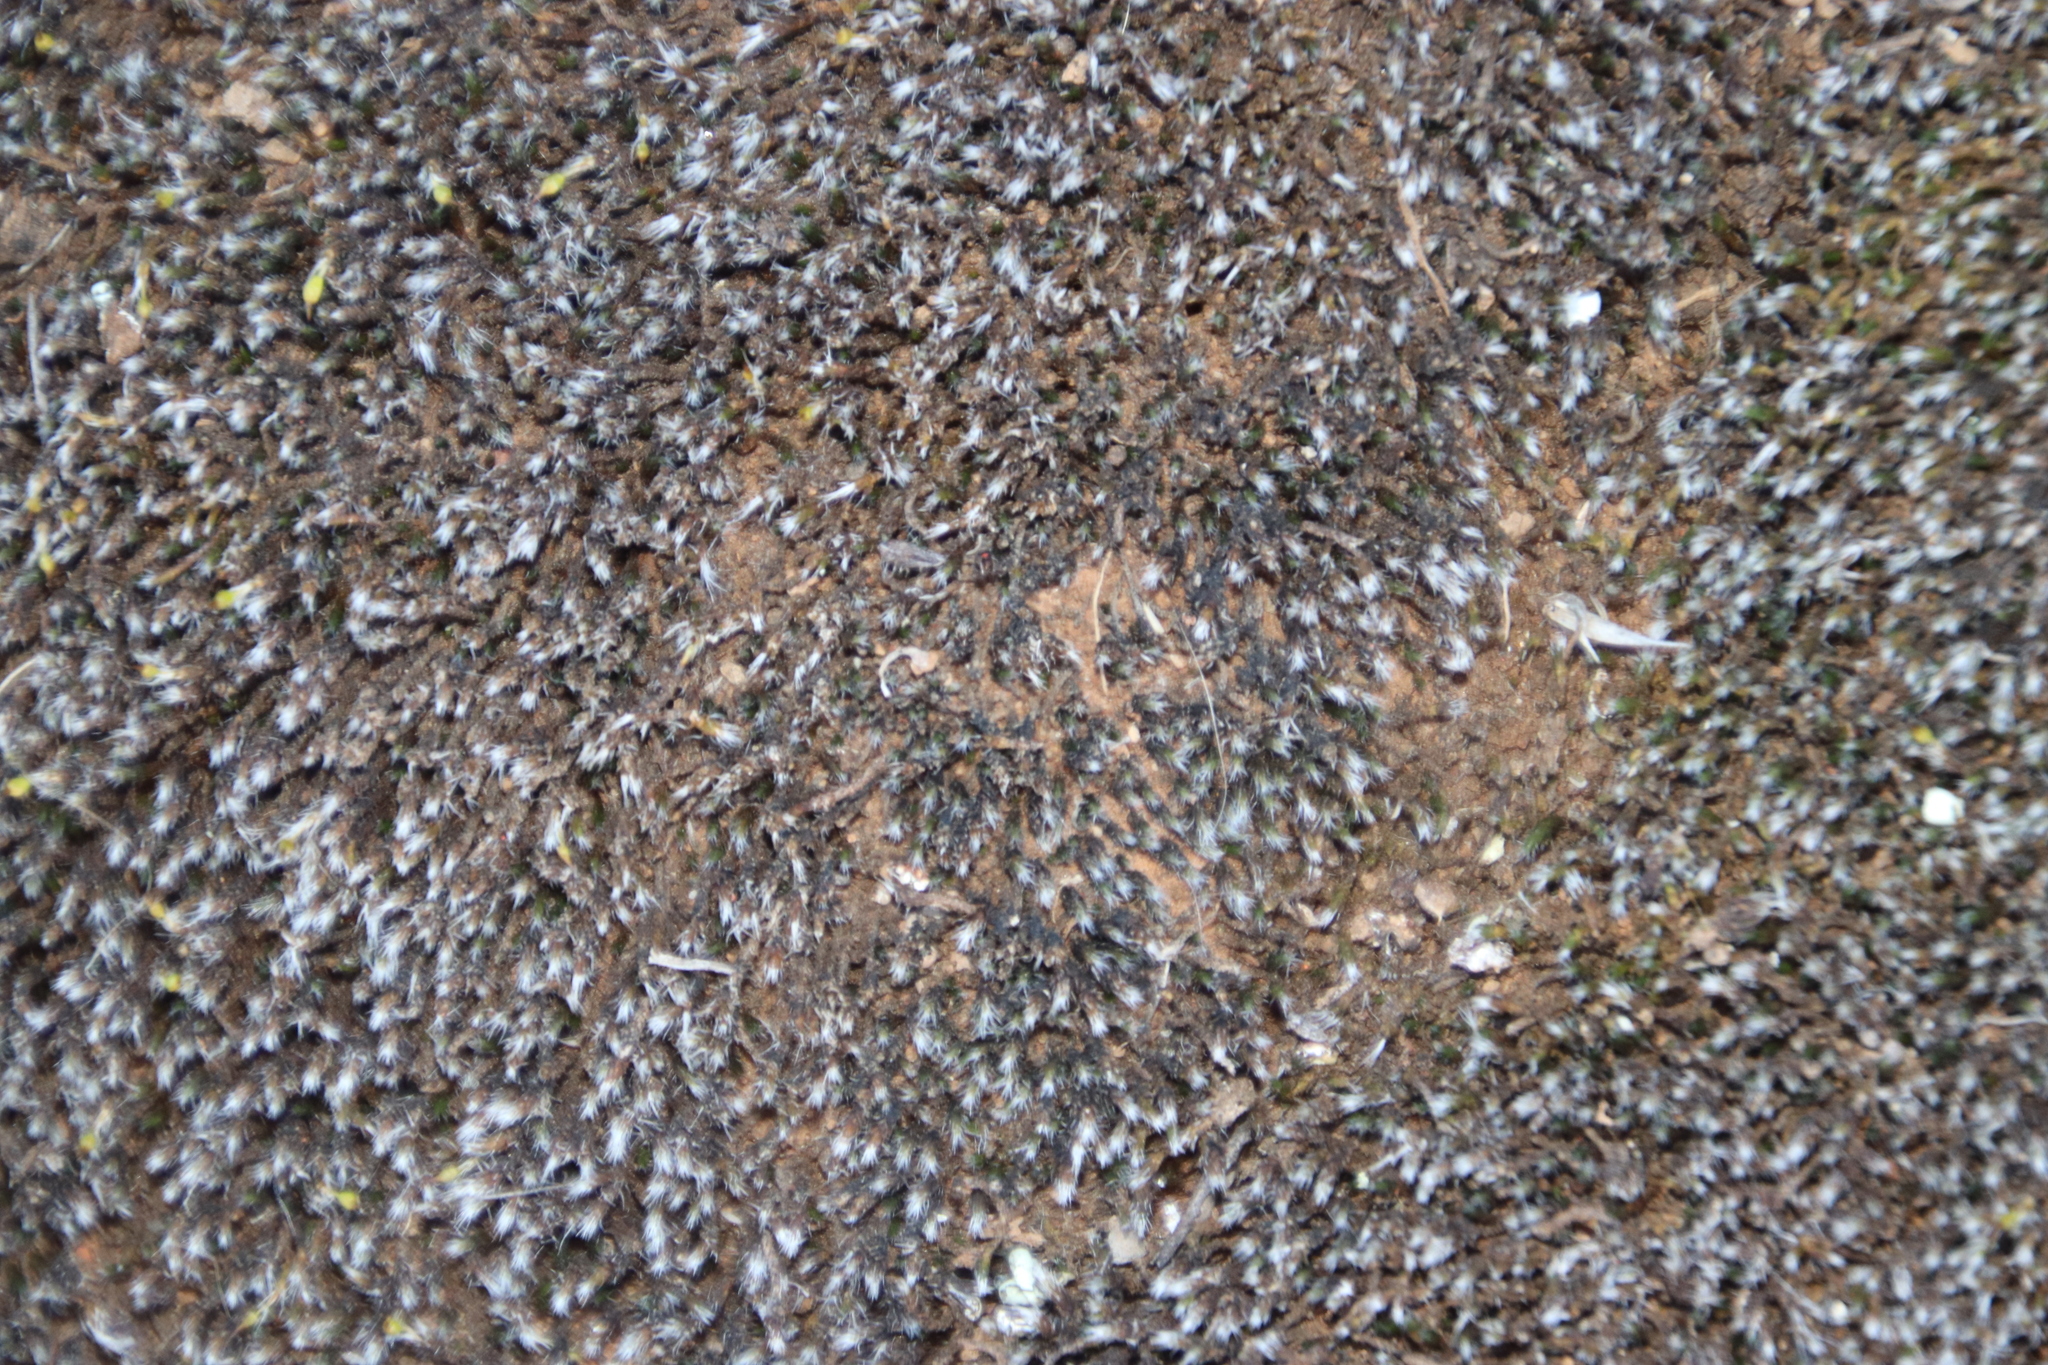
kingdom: Plantae
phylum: Bryophyta
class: Bryopsida
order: Grimmiales
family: Grimmiaceae
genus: Grimmia
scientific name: Grimmia laevigata
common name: Hoary grimmia
